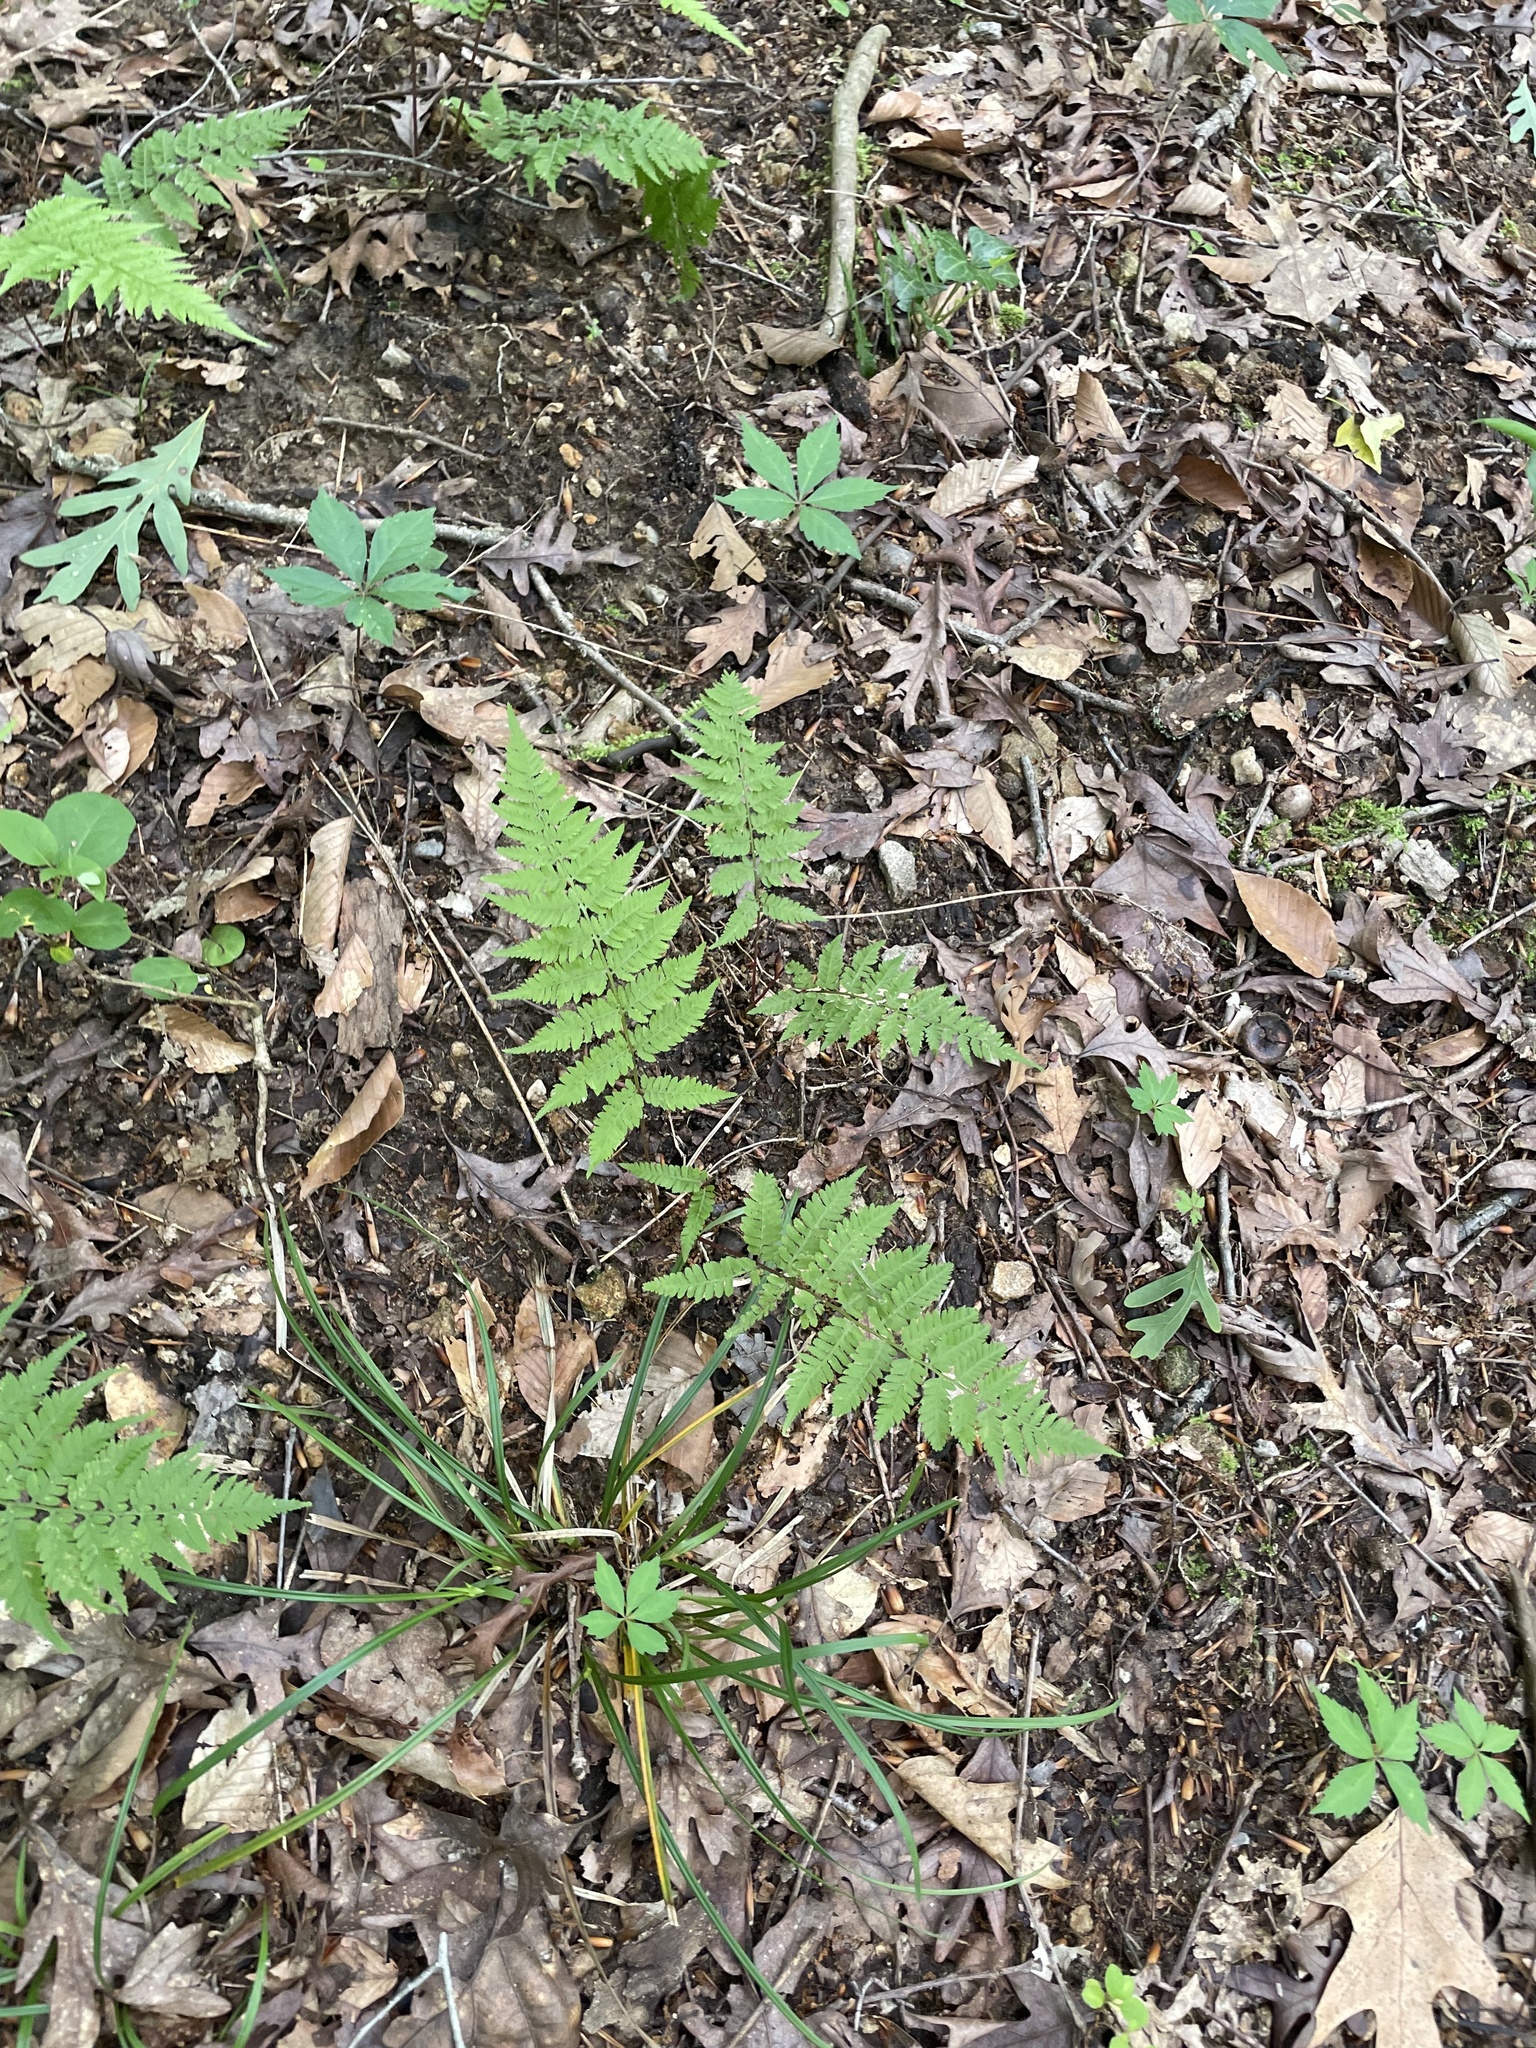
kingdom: Plantae
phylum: Tracheophyta
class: Polypodiopsida
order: Polypodiales
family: Athyriaceae
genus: Athyrium
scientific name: Athyrium asplenioides
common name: Southern lady fern
